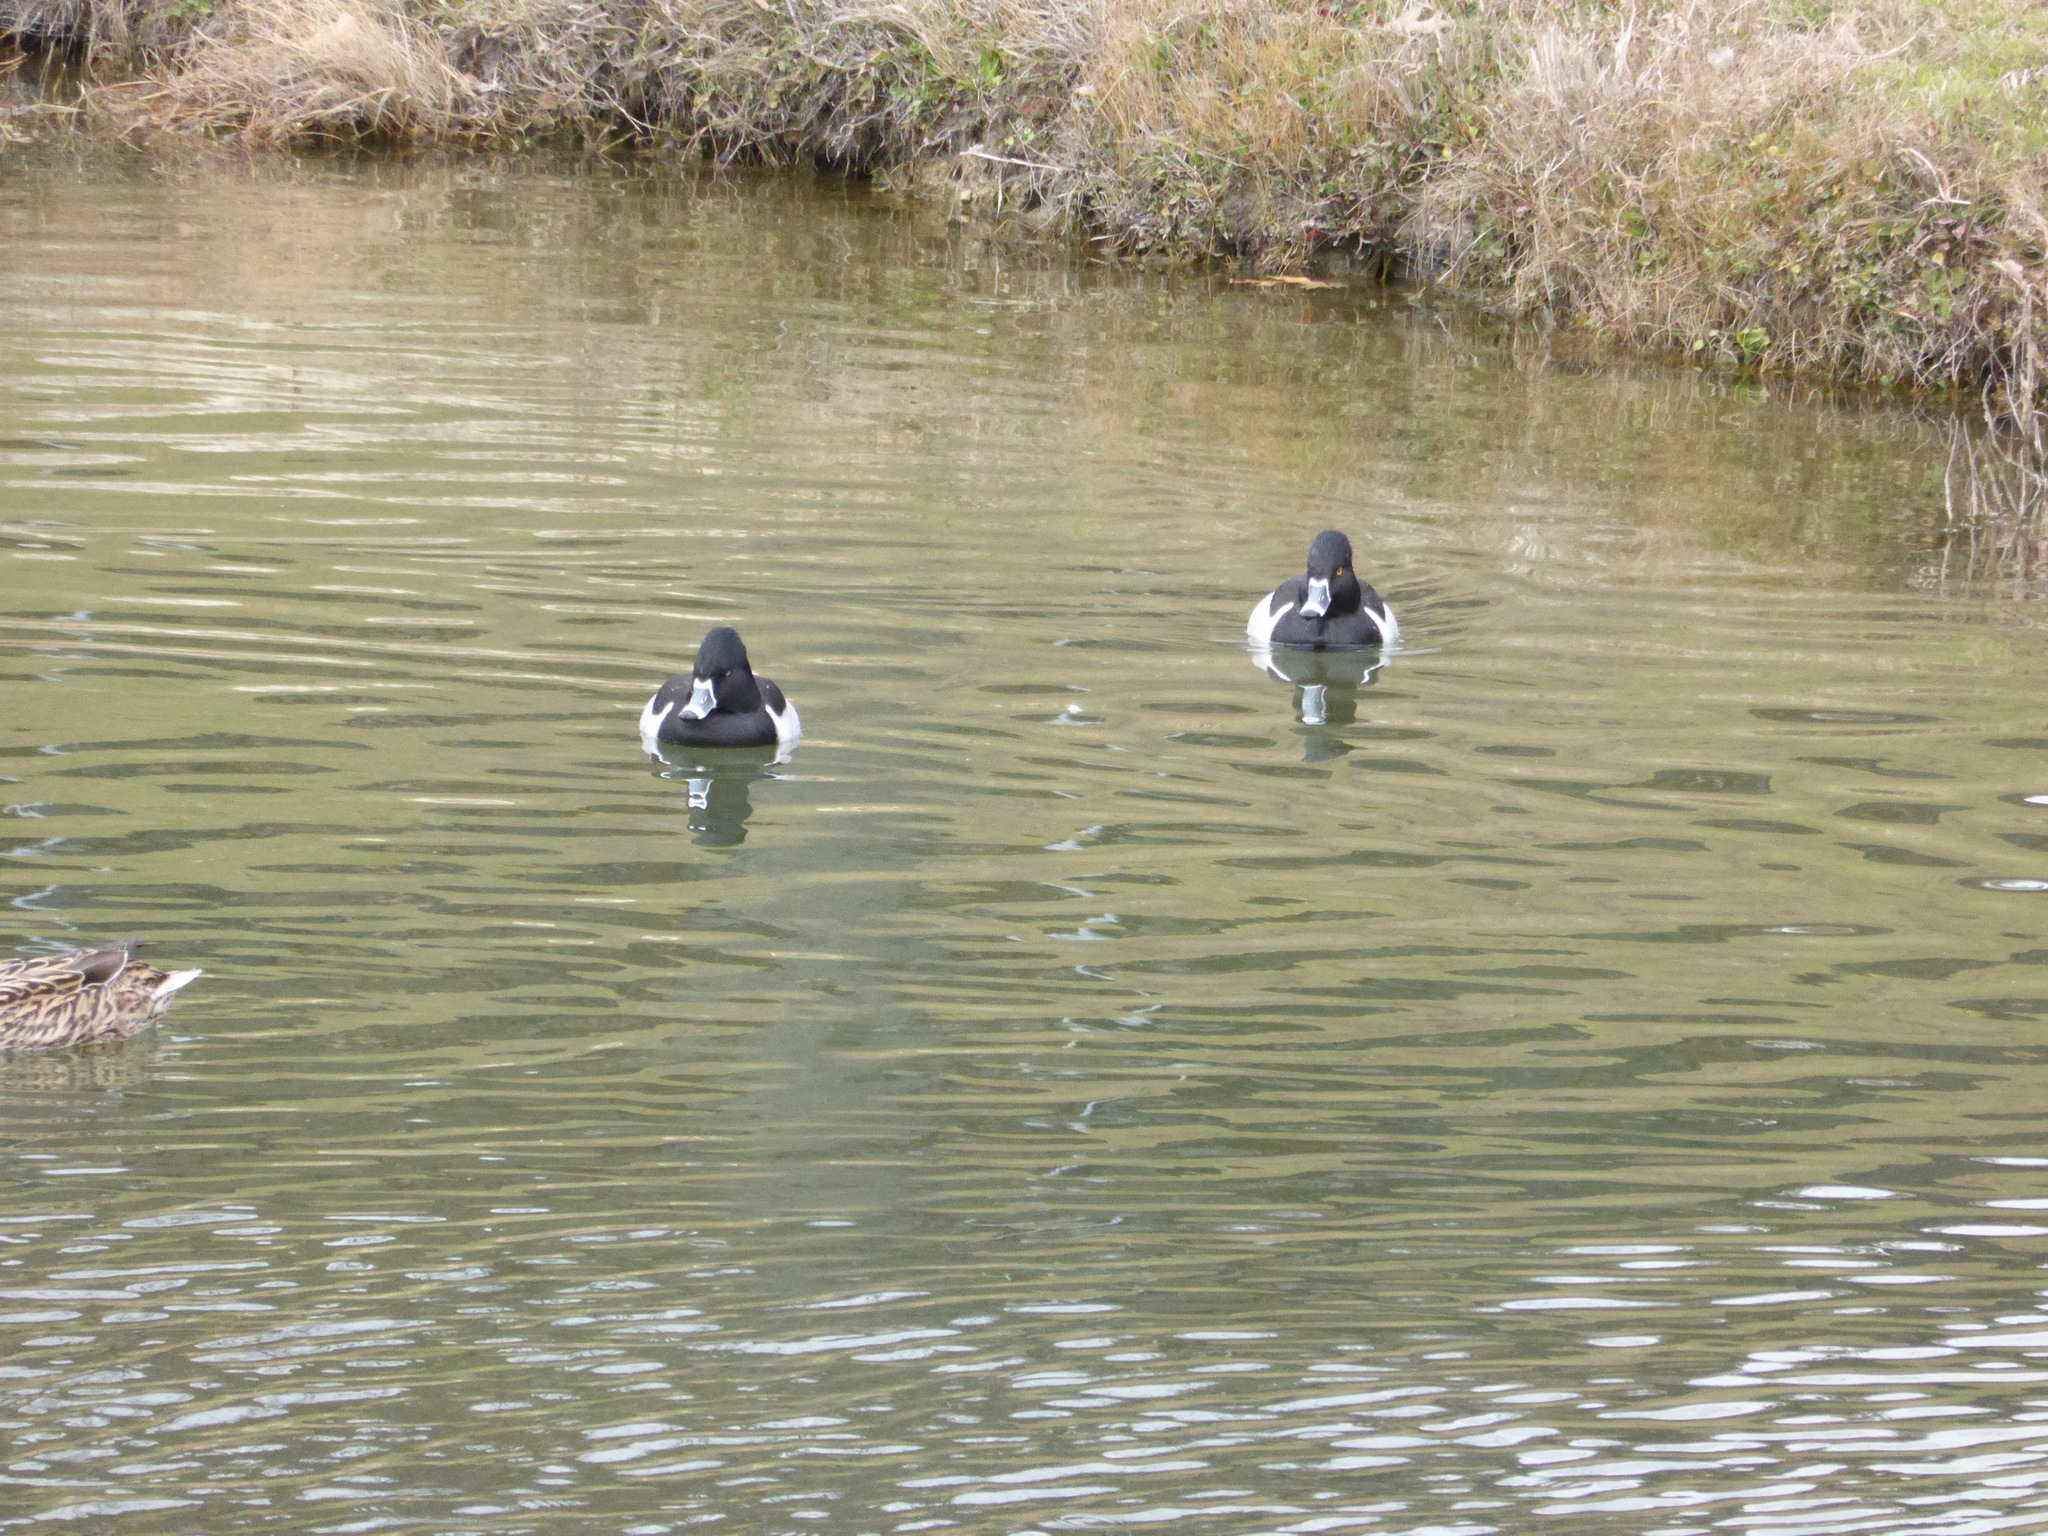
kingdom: Animalia
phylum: Chordata
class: Aves
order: Anseriformes
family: Anatidae
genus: Aythya
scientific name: Aythya collaris
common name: Ring-necked duck
